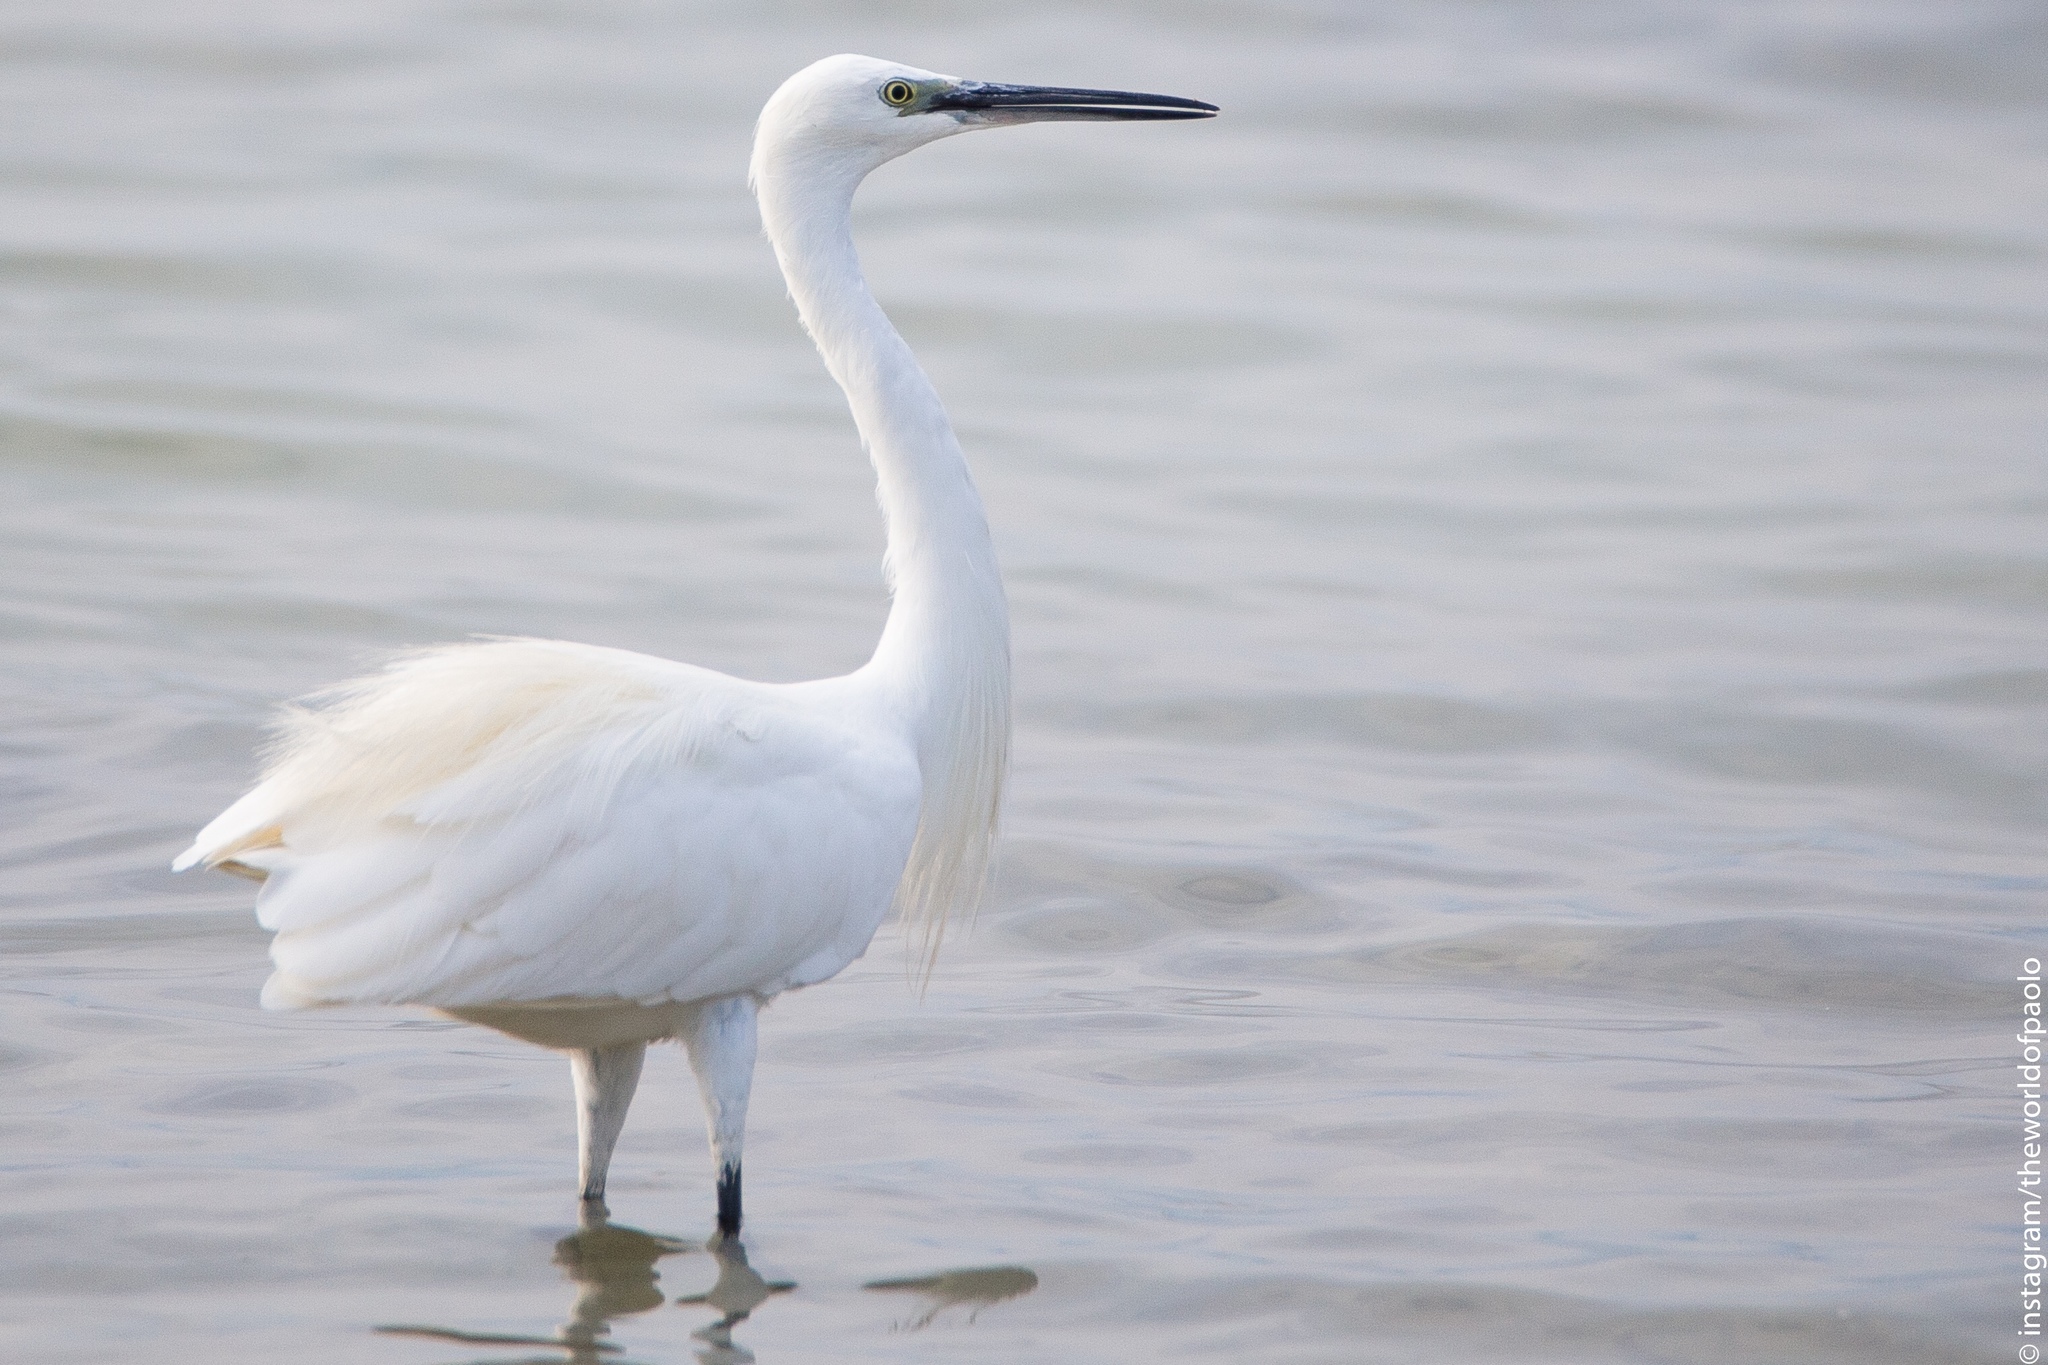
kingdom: Animalia
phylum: Chordata
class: Aves
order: Pelecaniformes
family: Ardeidae
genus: Egretta
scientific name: Egretta garzetta
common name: Little egret
